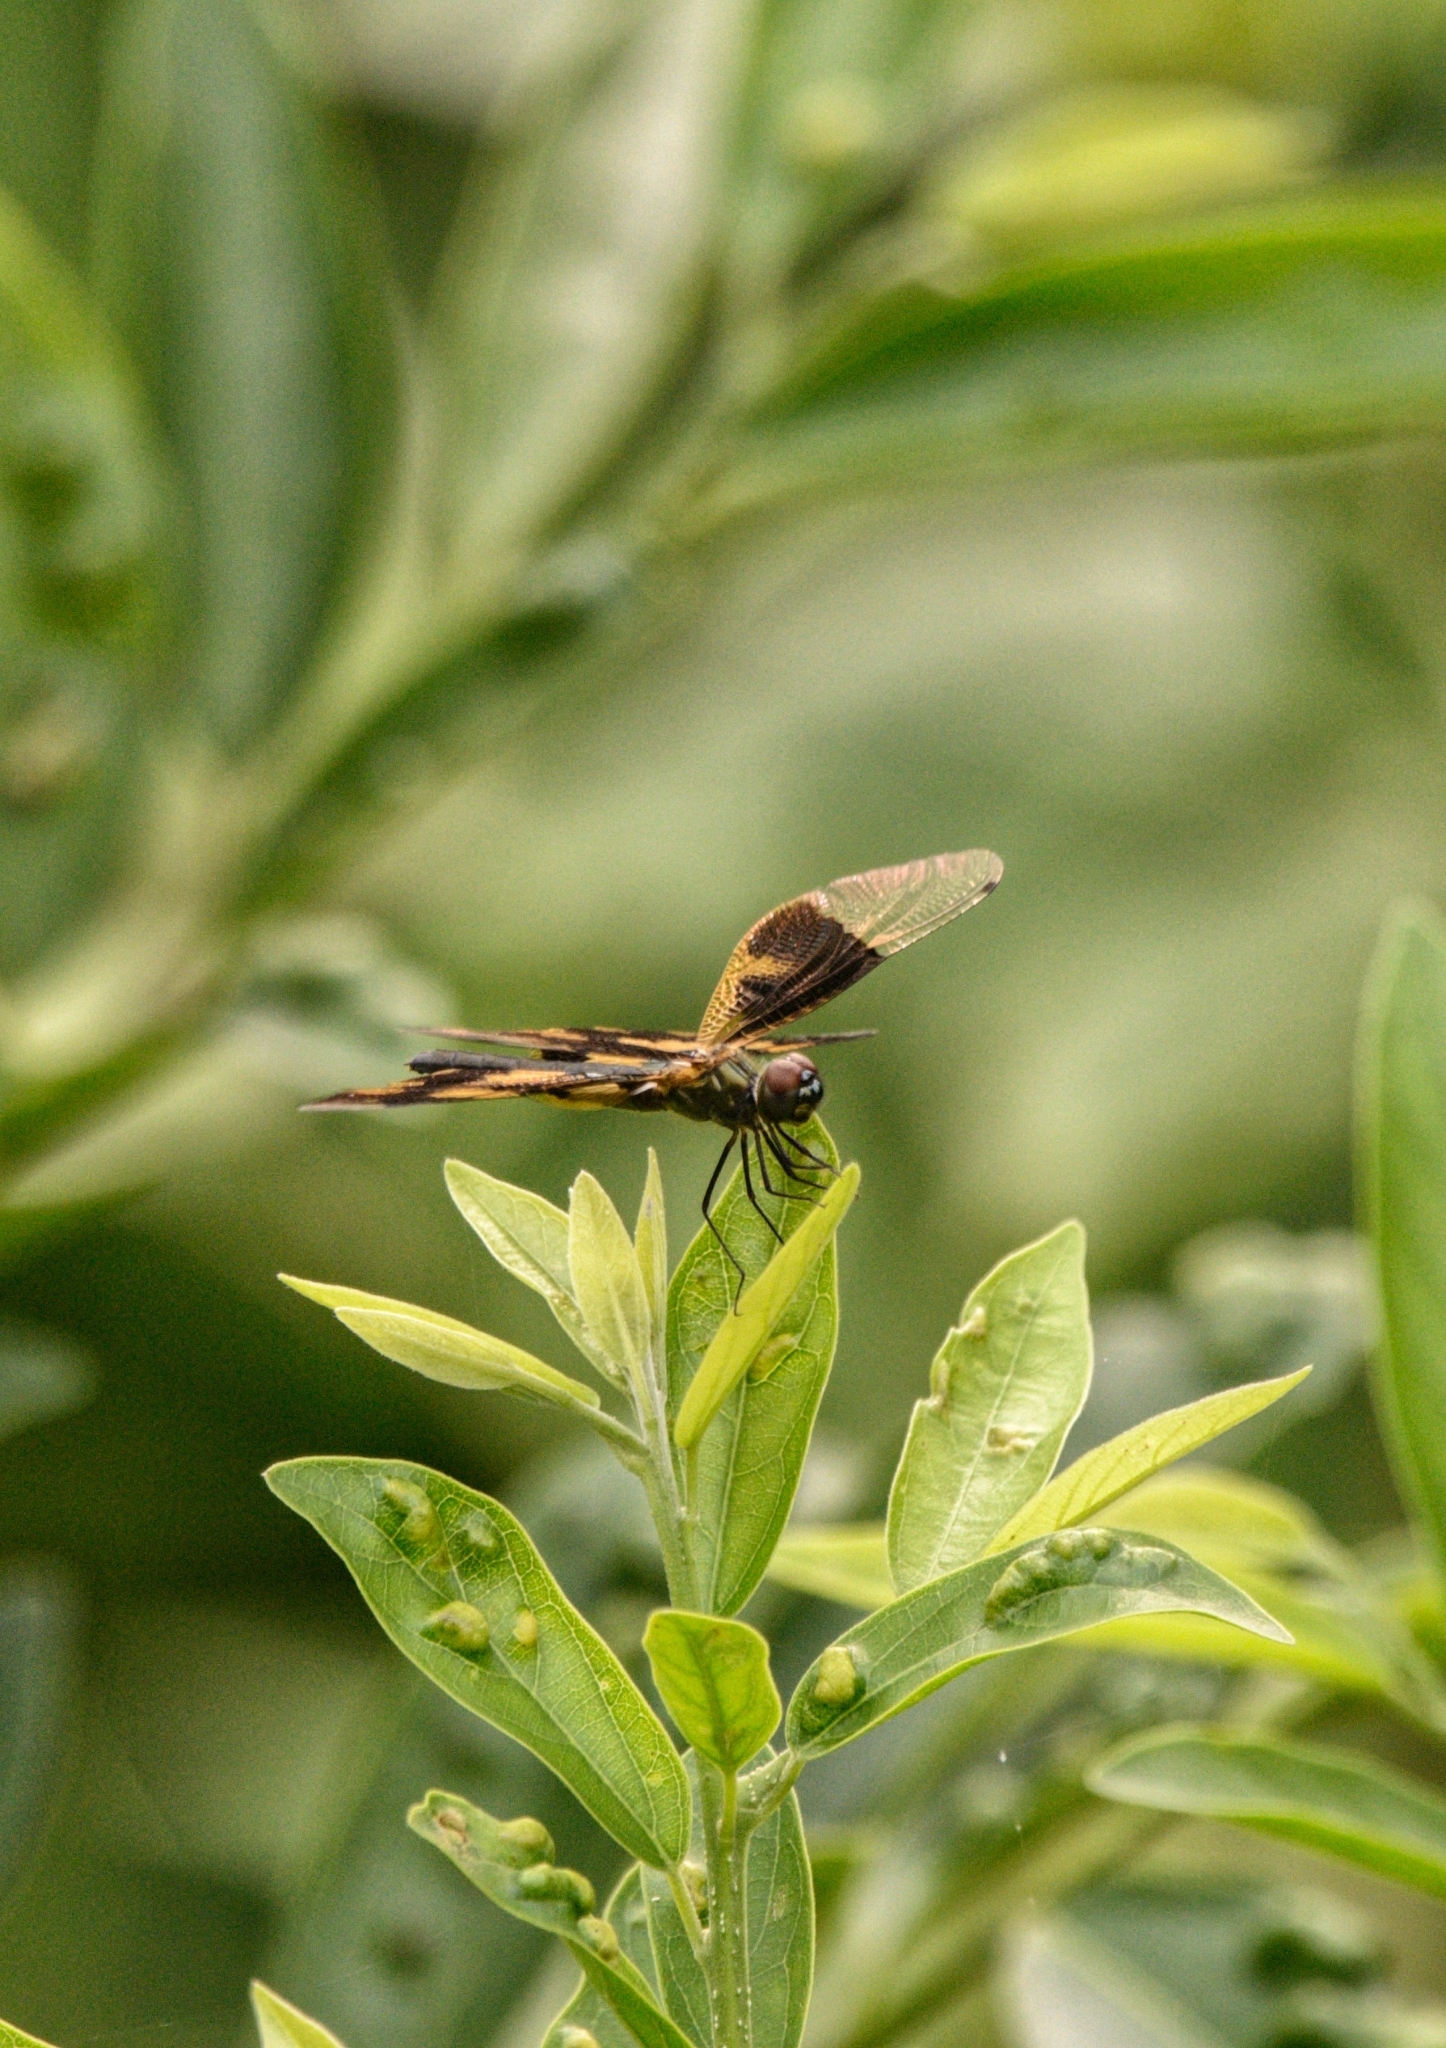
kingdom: Animalia
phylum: Arthropoda
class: Insecta
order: Odonata
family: Libellulidae
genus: Rhyothemis
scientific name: Rhyothemis variegata
